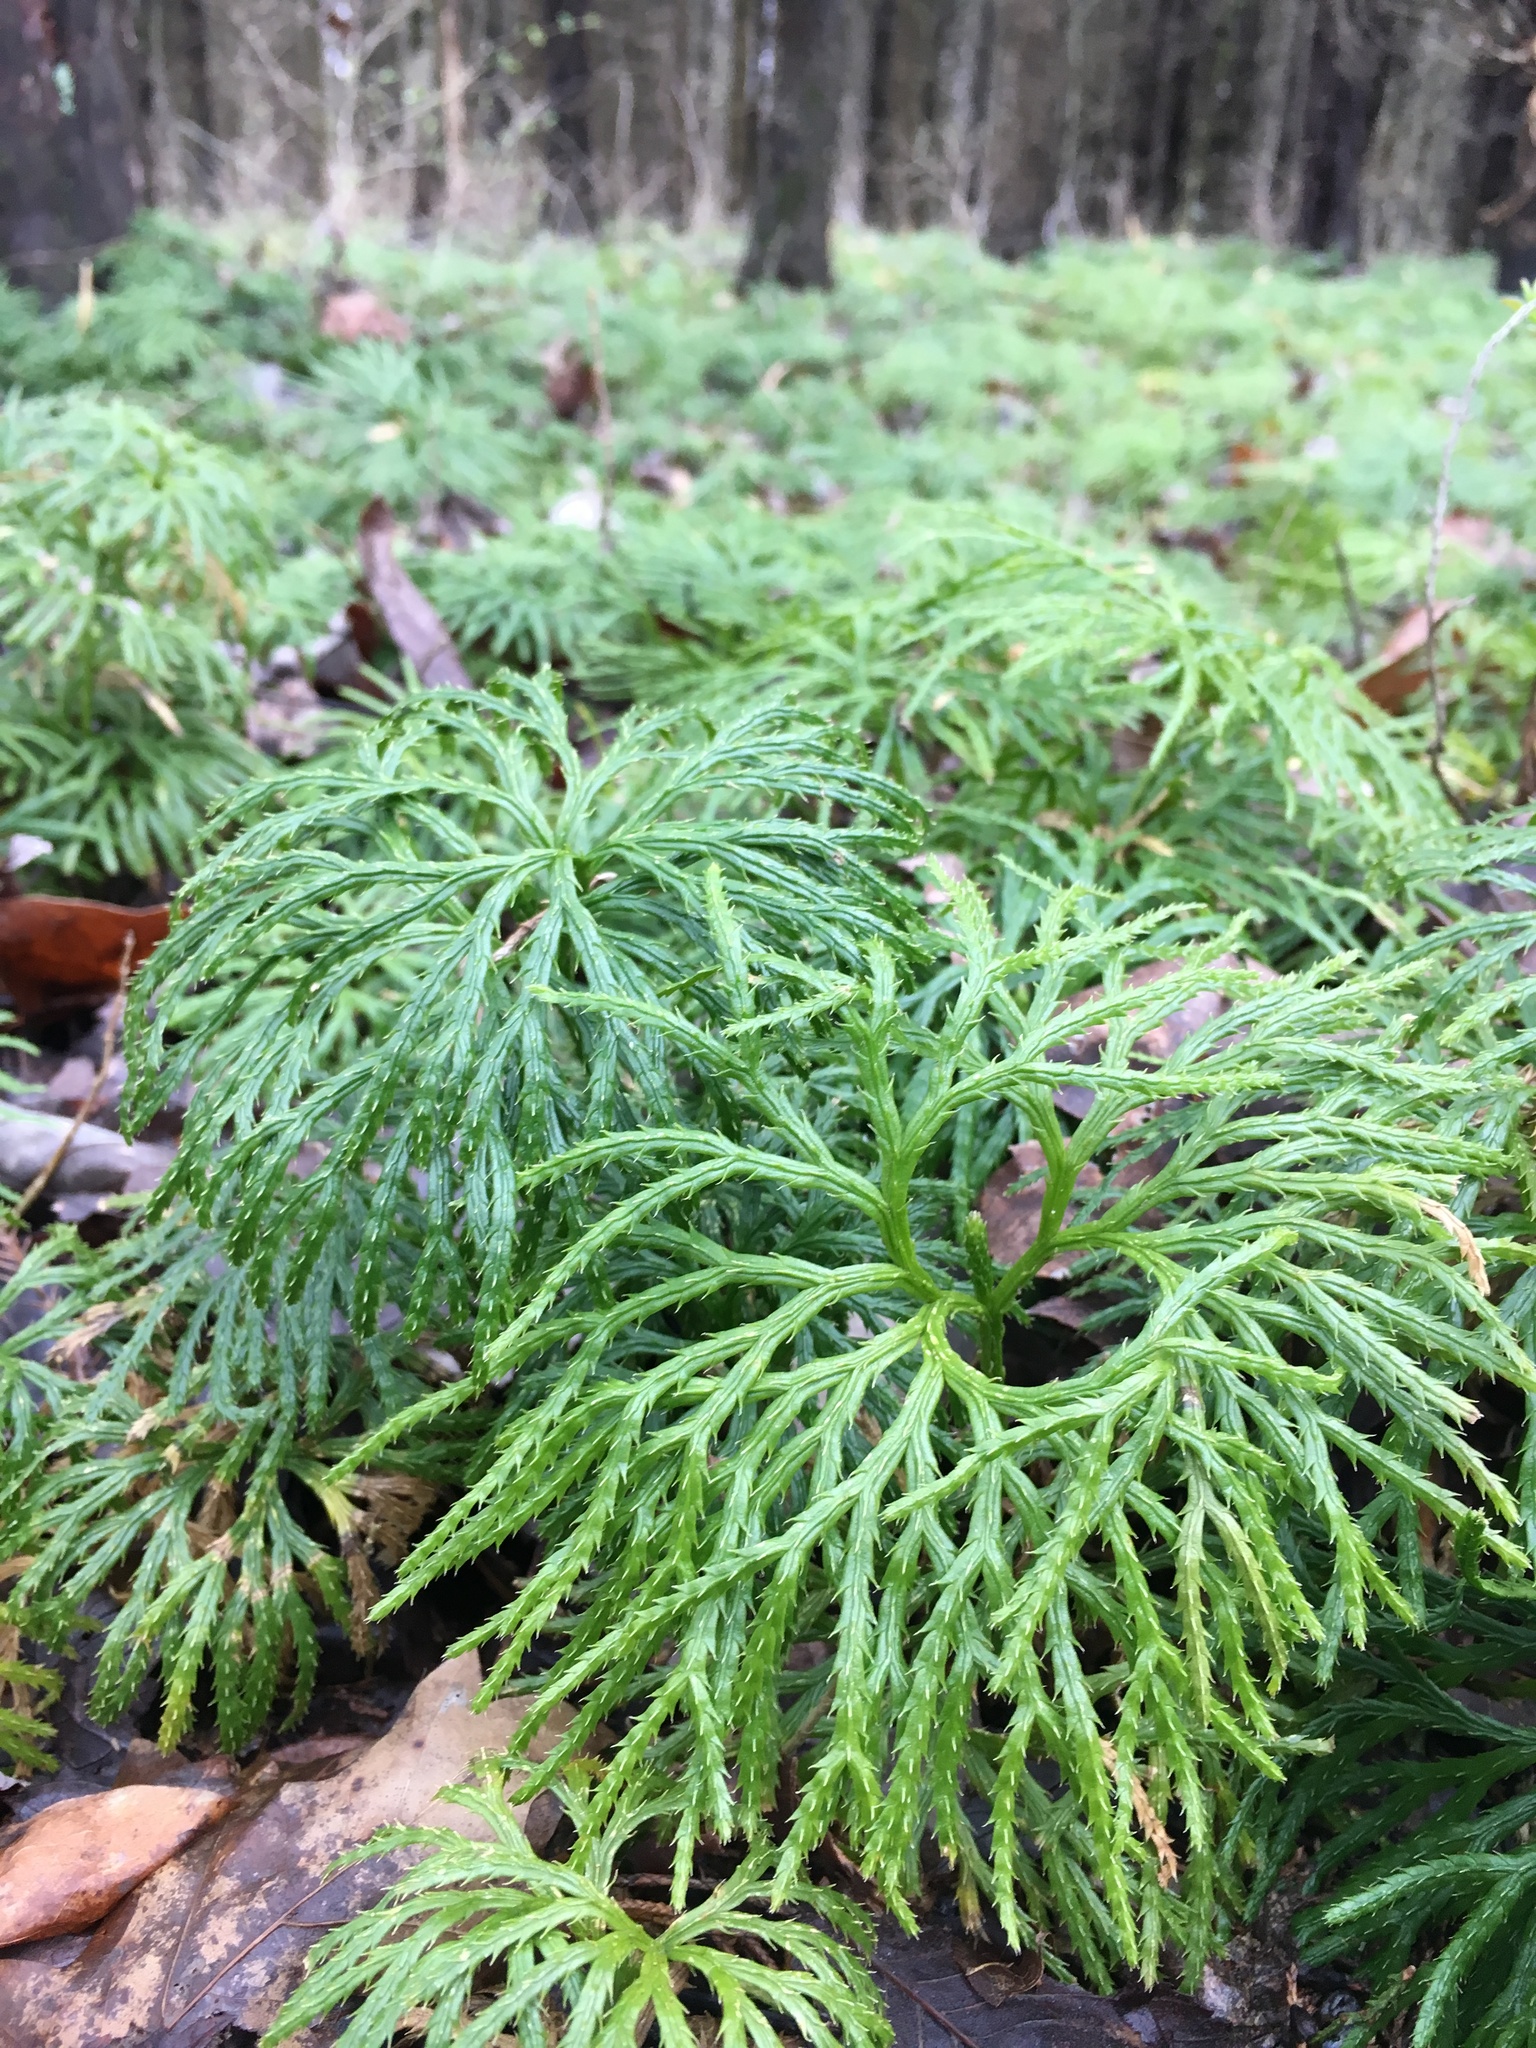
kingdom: Plantae
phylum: Tracheophyta
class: Lycopodiopsida
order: Lycopodiales
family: Lycopodiaceae
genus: Diphasiastrum
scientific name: Diphasiastrum digitatum
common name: Southern running-pine
